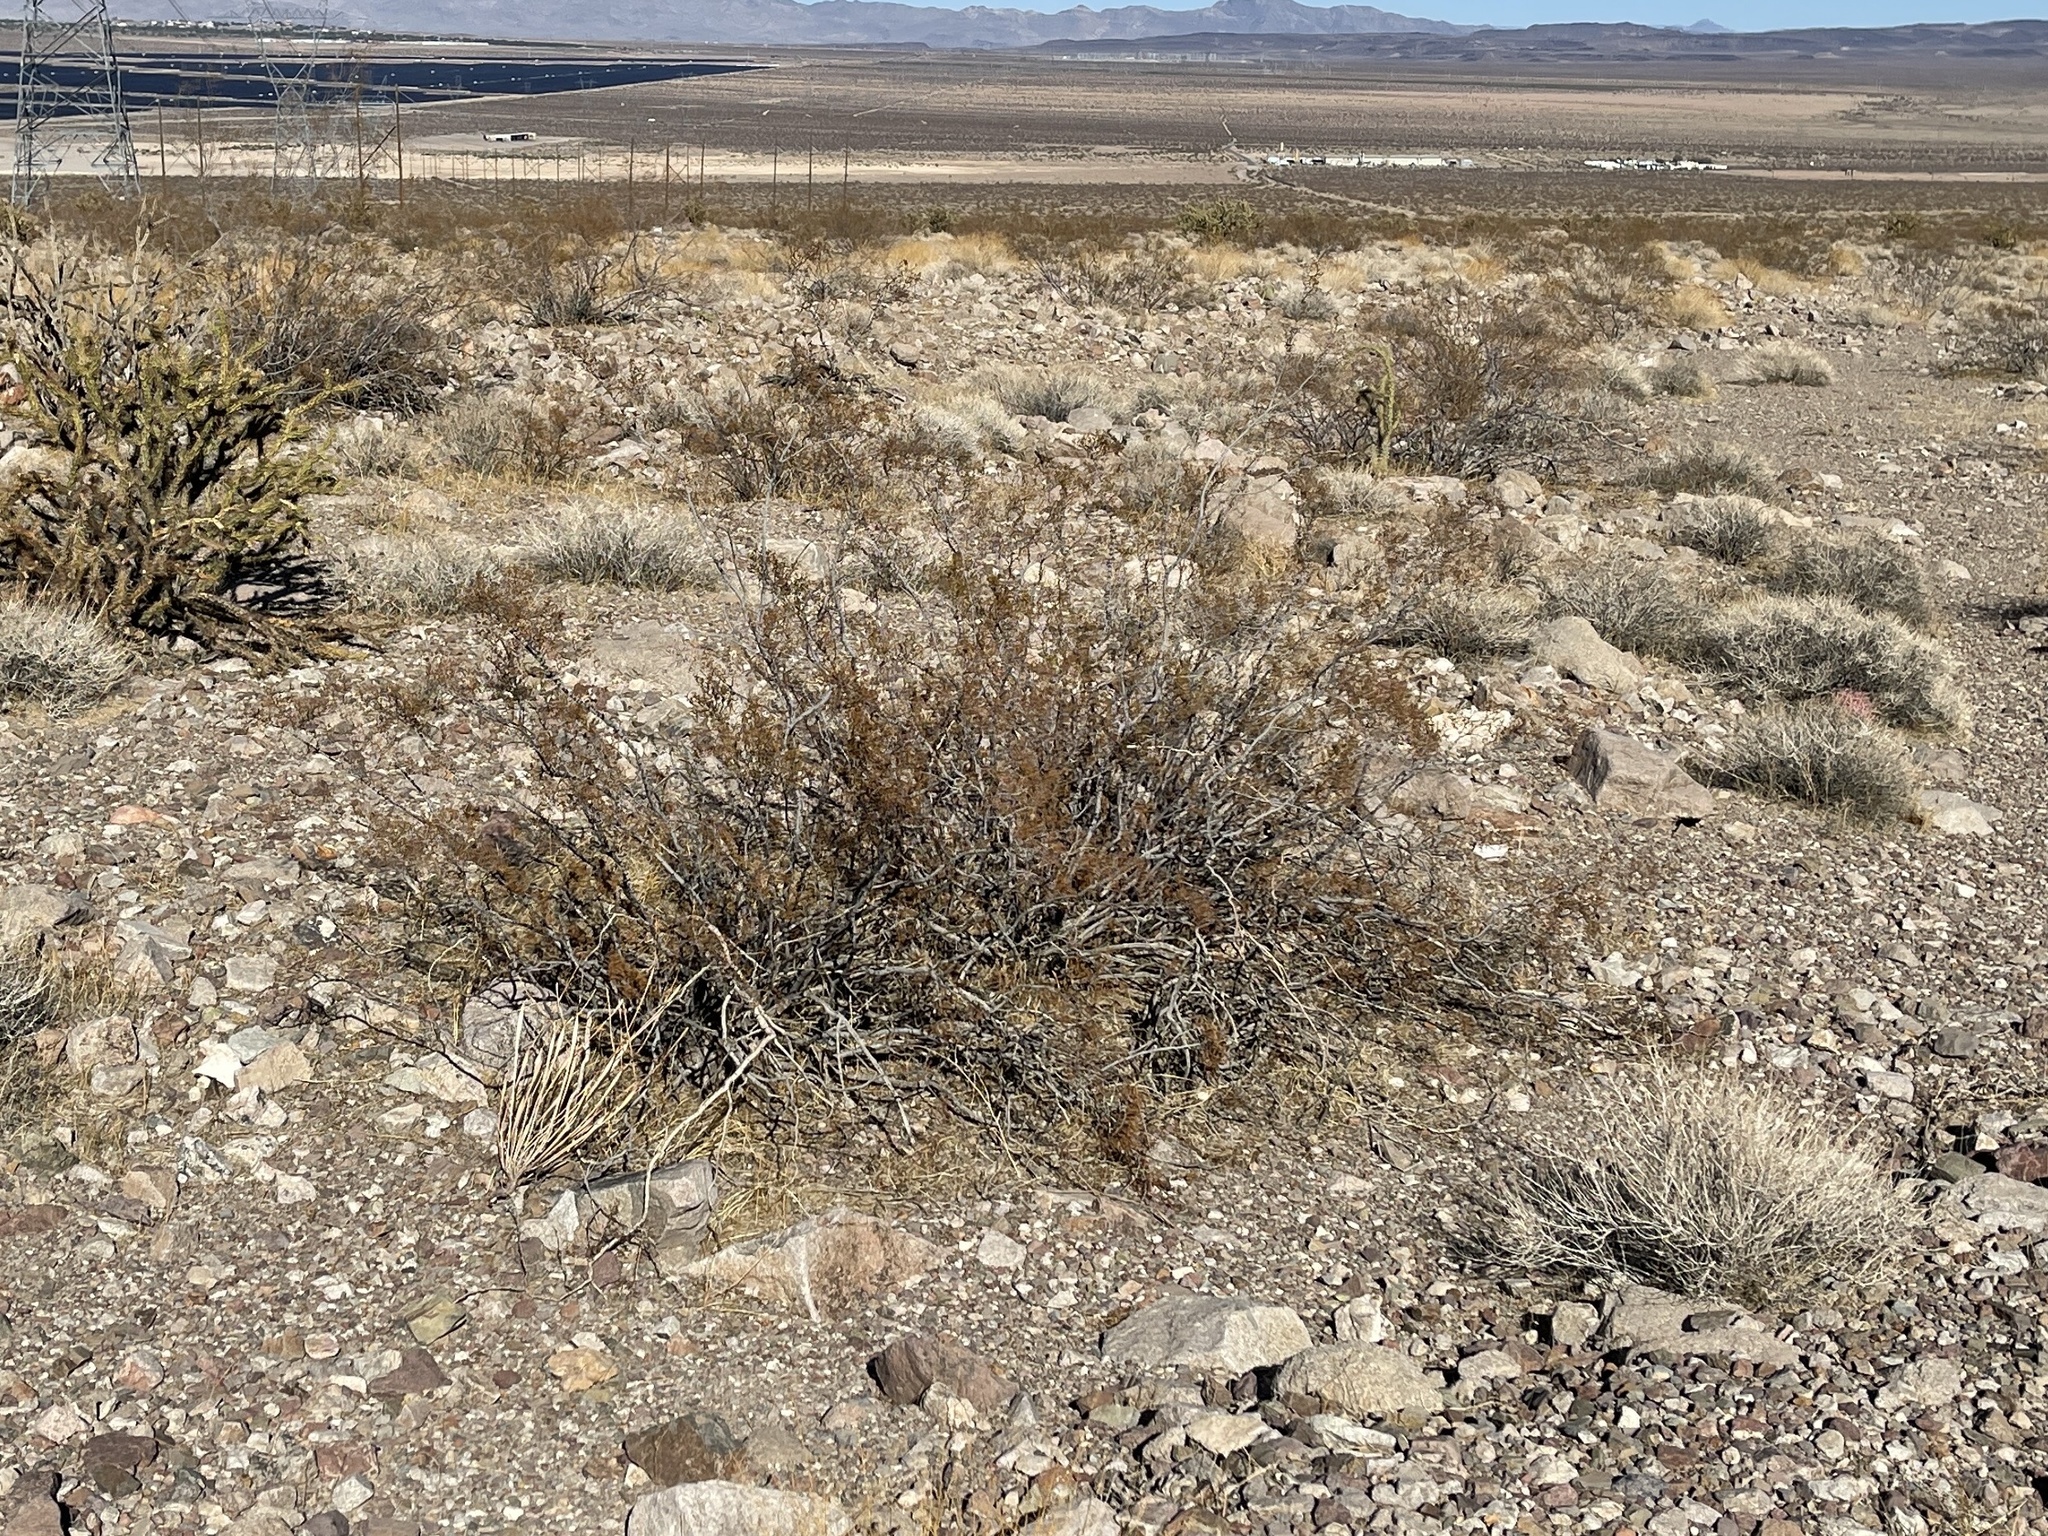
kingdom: Plantae
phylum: Tracheophyta
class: Magnoliopsida
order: Zygophyllales
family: Zygophyllaceae
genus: Larrea
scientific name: Larrea tridentata
